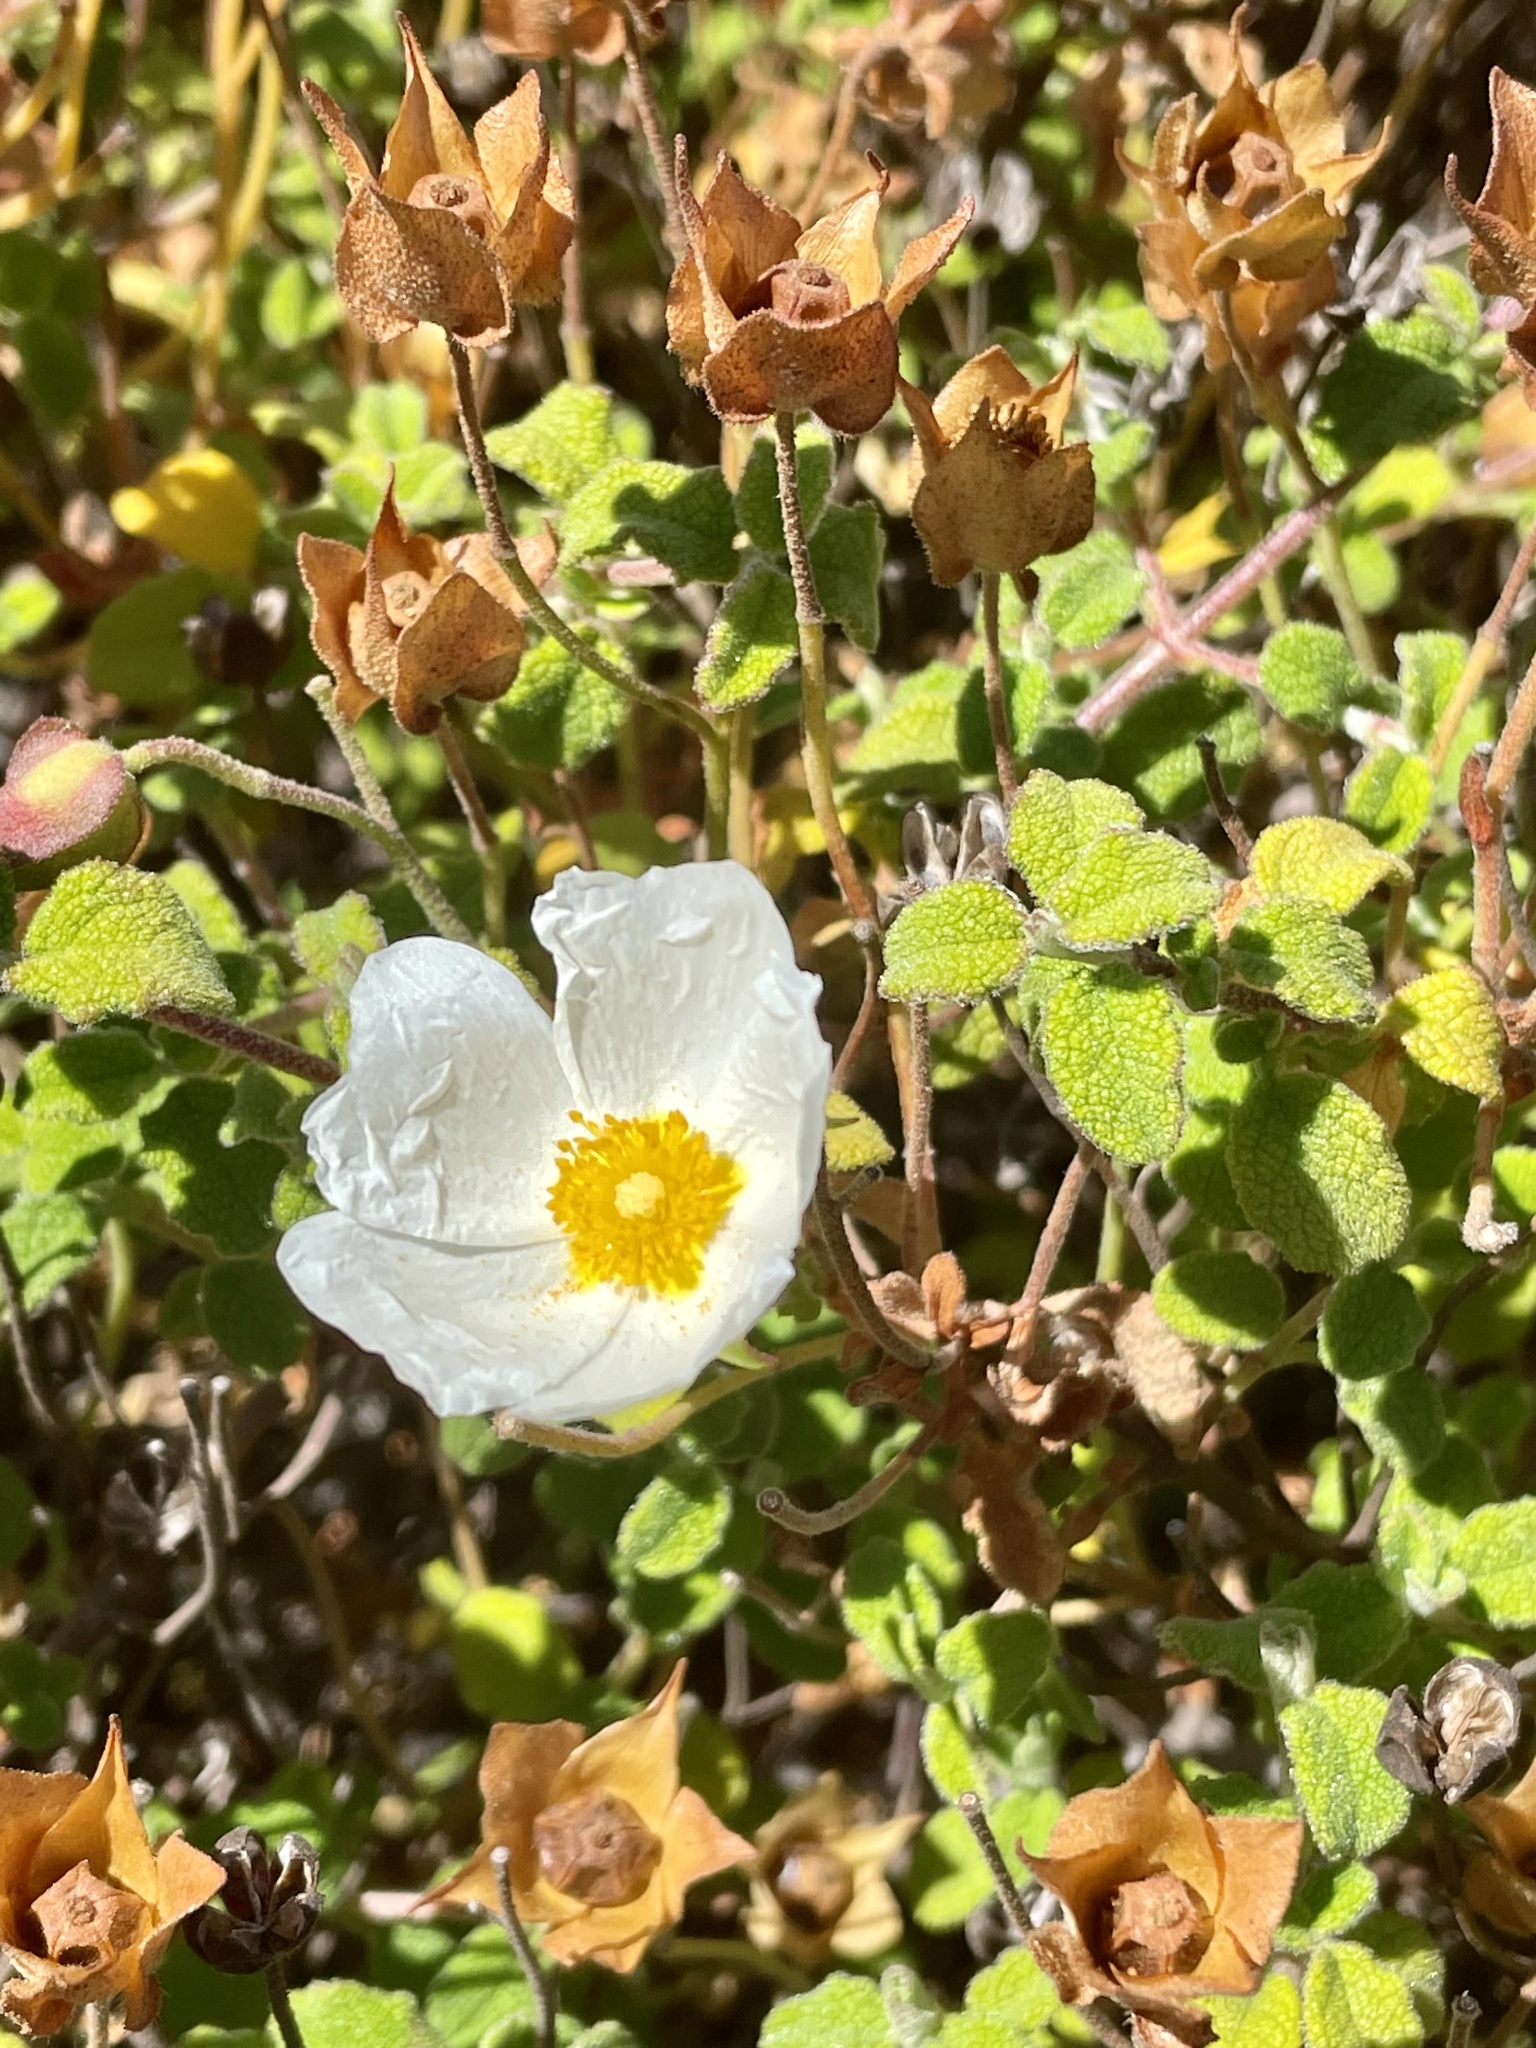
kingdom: Plantae
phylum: Tracheophyta
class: Magnoliopsida
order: Malvales
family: Cistaceae
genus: Cistus
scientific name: Cistus salviifolius
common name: Salvia cistus
